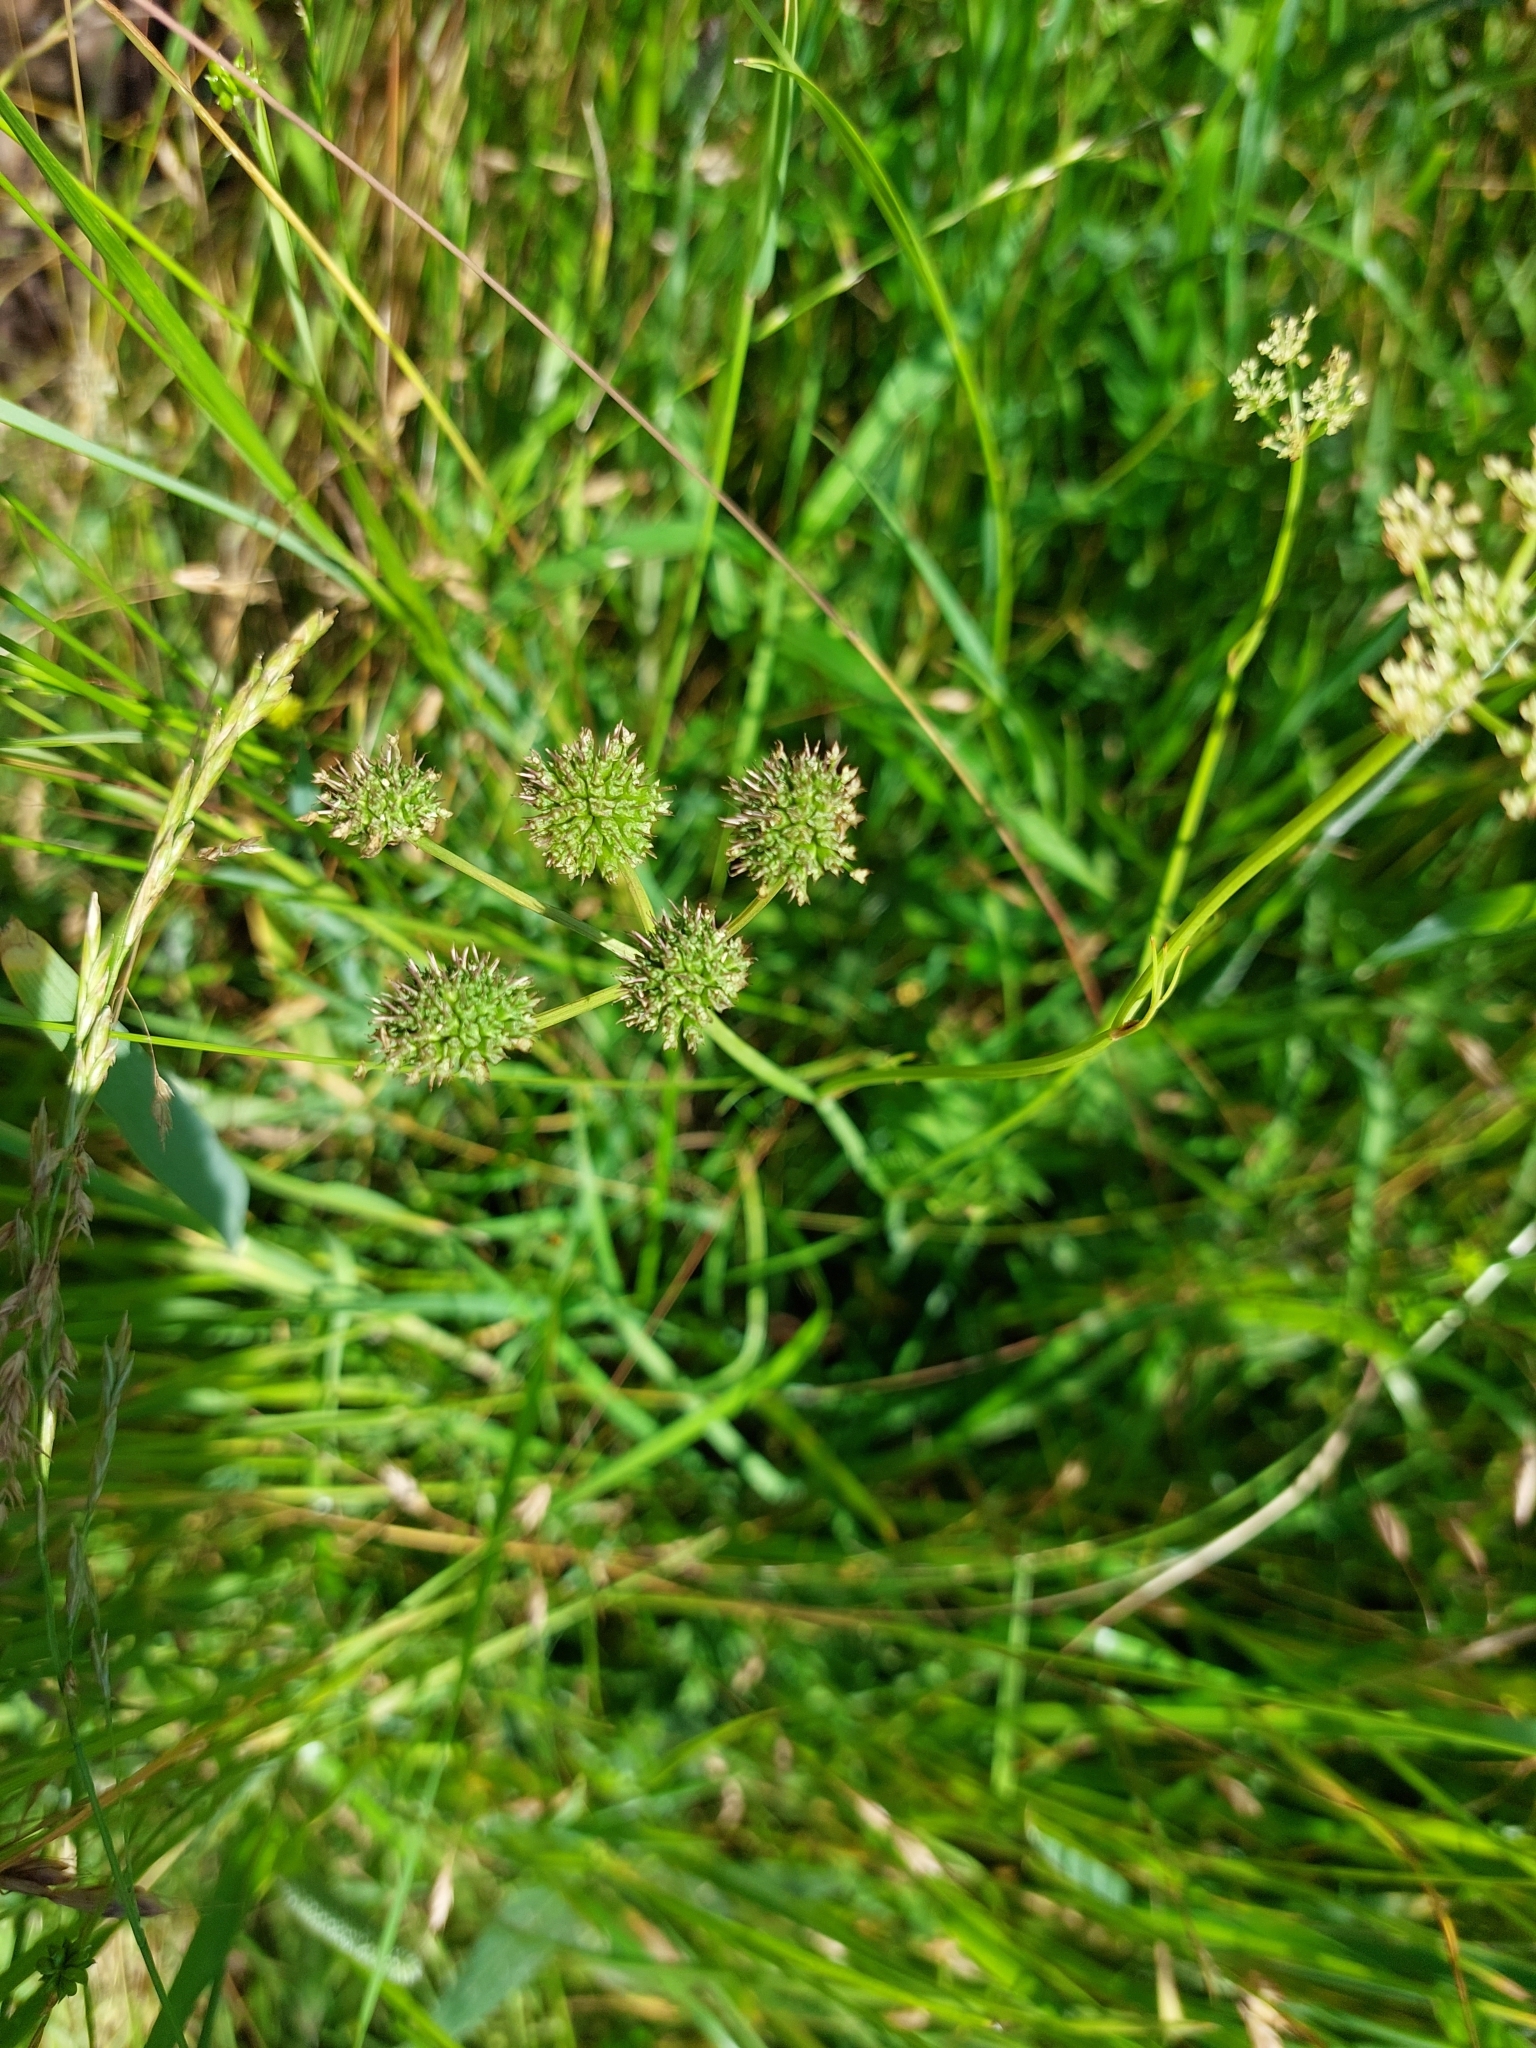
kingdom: Plantae
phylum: Tracheophyta
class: Magnoliopsida
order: Apiales
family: Apiaceae
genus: Oenanthe
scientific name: Oenanthe silaifolia
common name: Narrow-leaved water-dropwort
